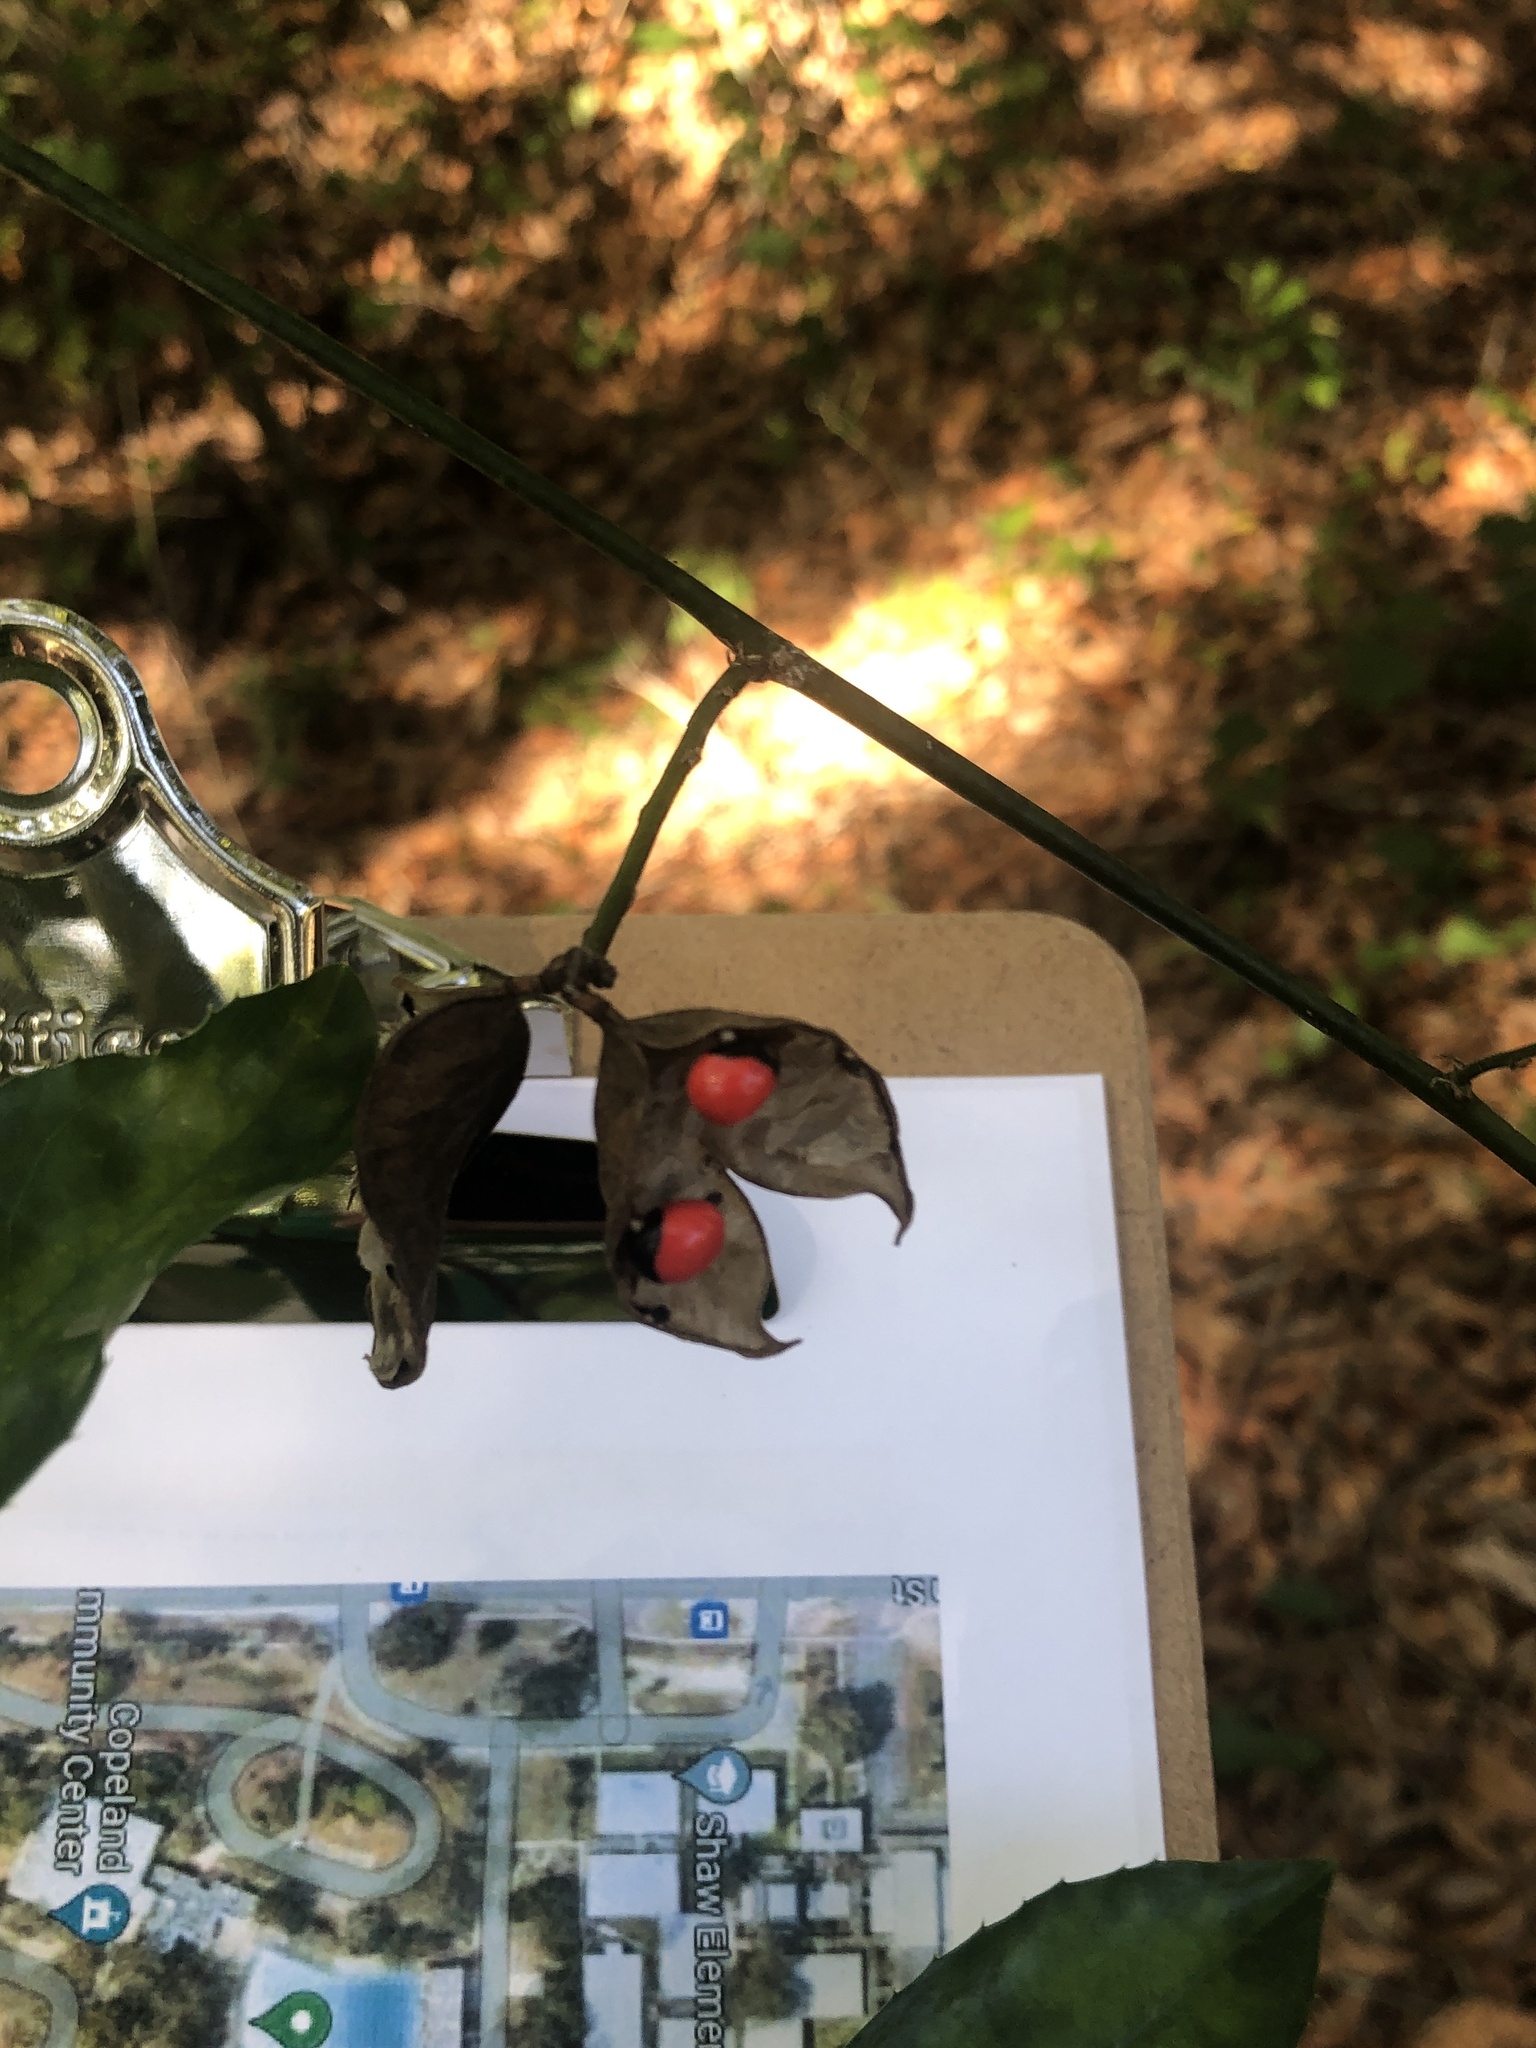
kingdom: Plantae
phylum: Tracheophyta
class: Magnoliopsida
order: Fabales
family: Fabaceae
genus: Abrus
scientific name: Abrus precatorius
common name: Rosarypea
